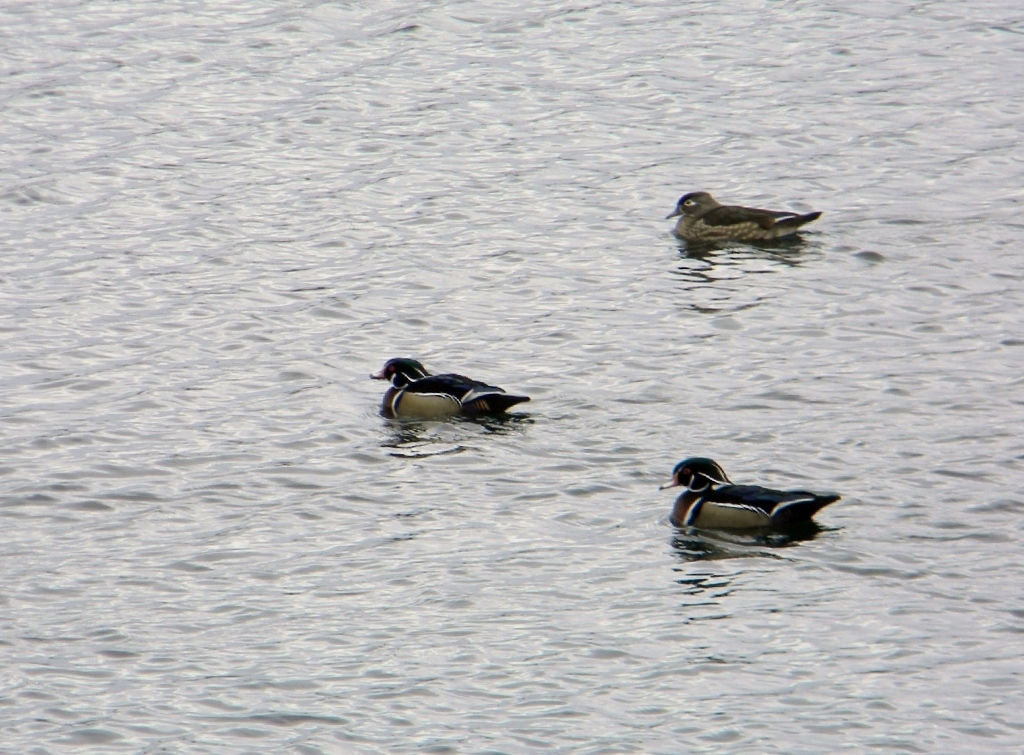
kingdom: Animalia
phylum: Chordata
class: Aves
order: Anseriformes
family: Anatidae
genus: Aix
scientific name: Aix sponsa
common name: Wood duck
